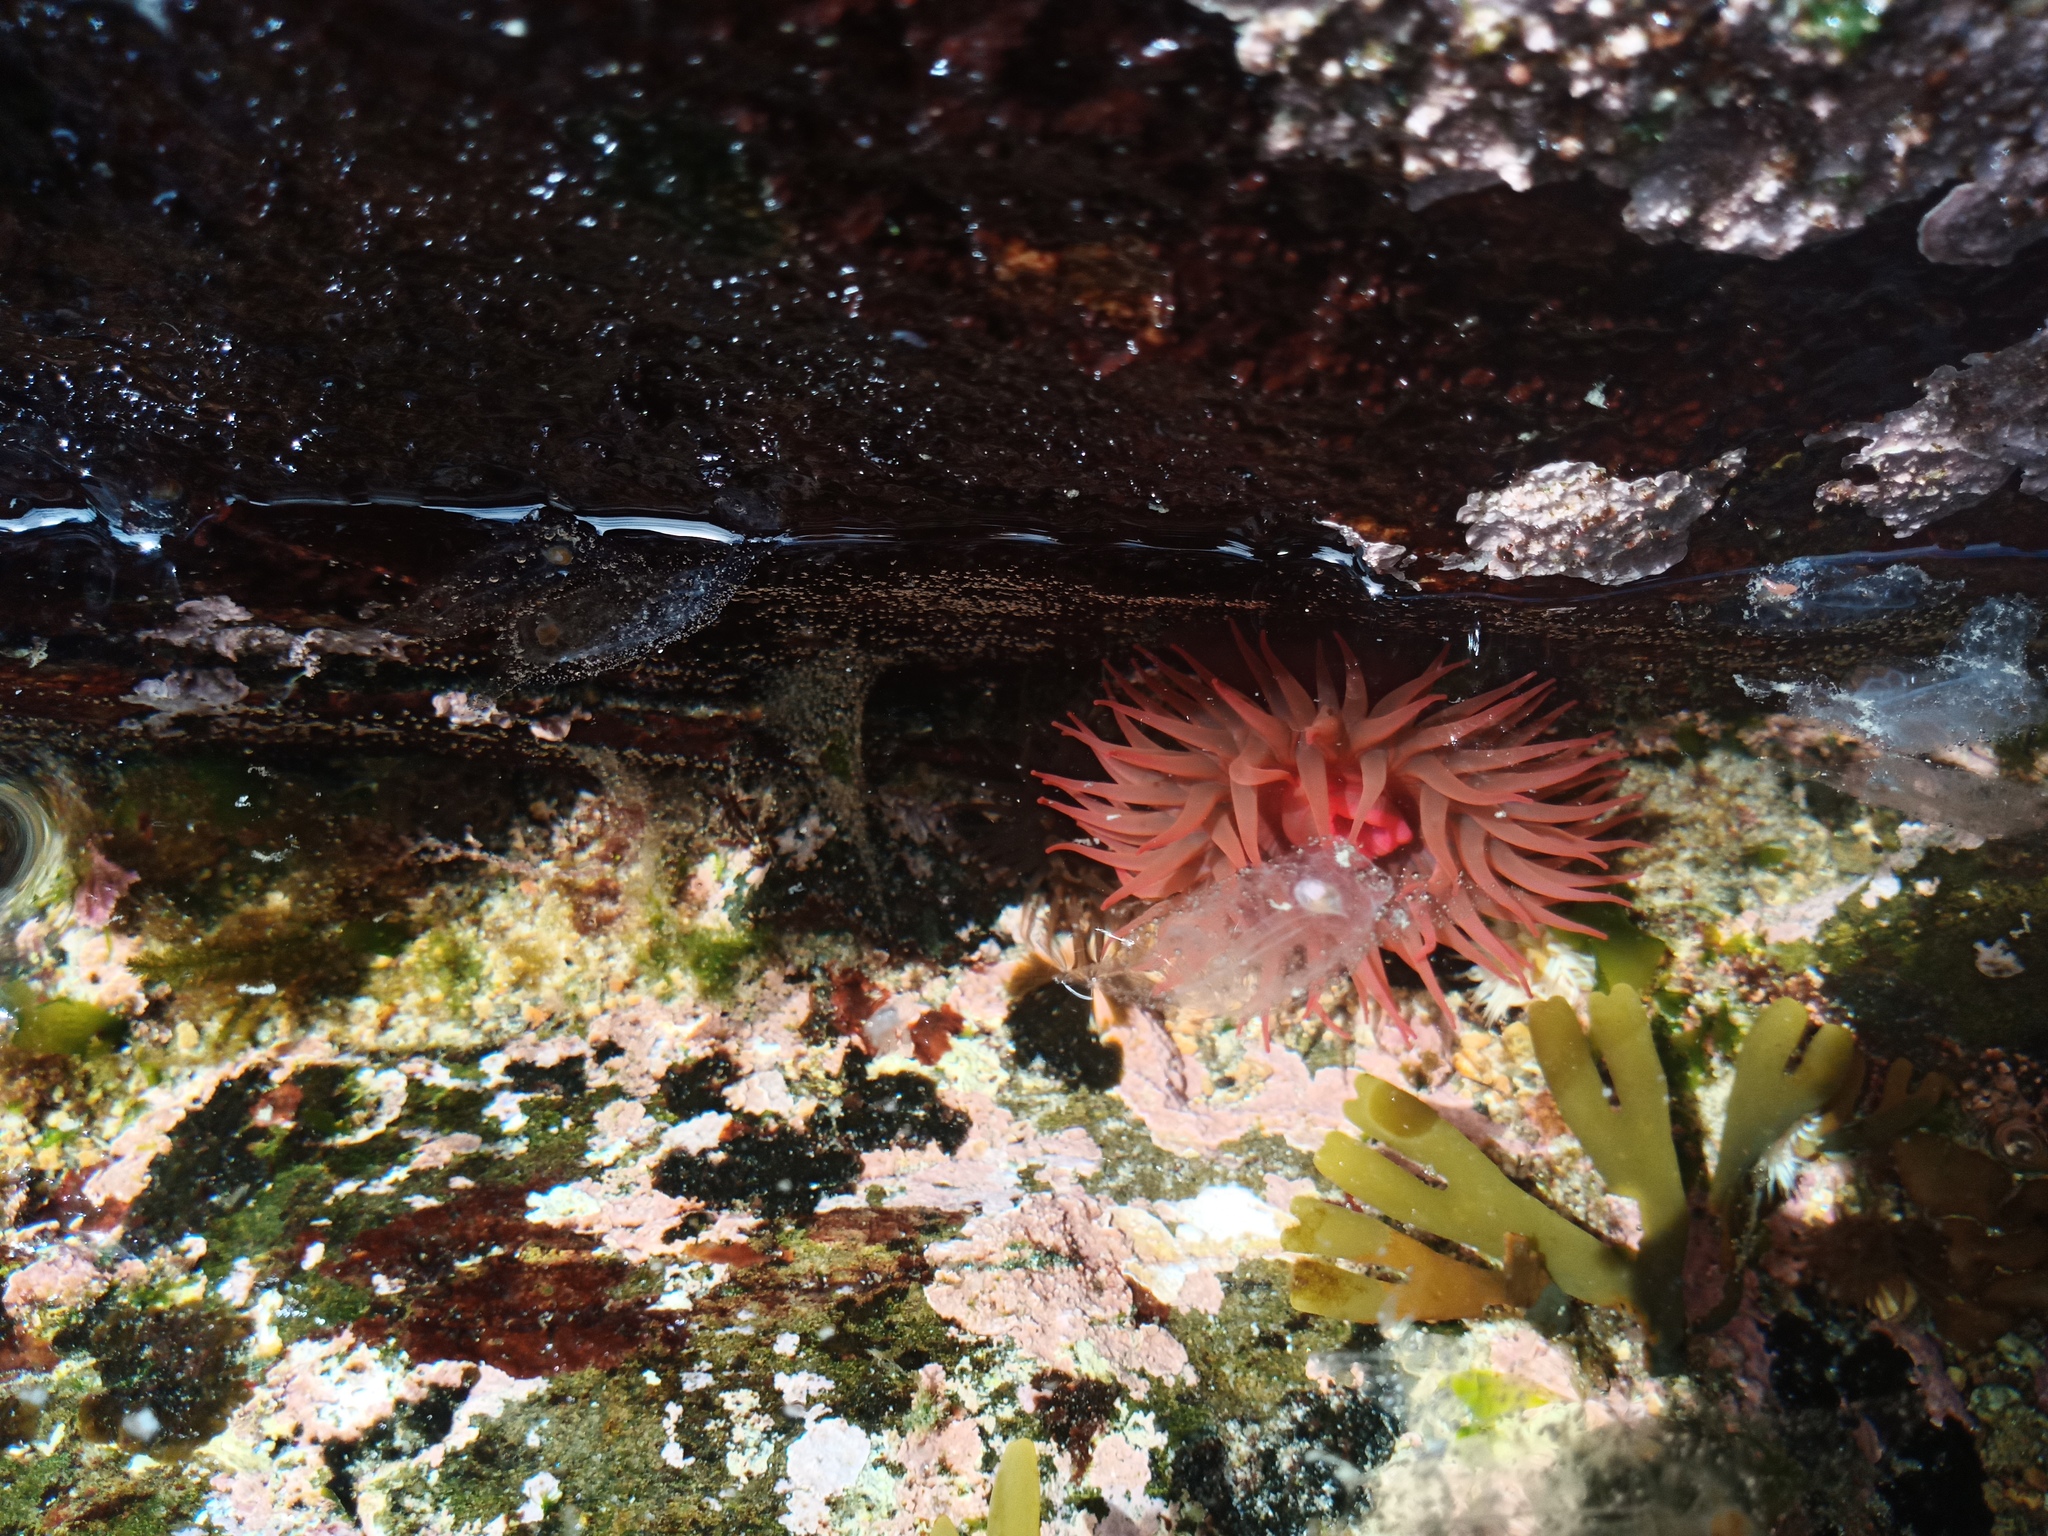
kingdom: Animalia
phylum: Cnidaria
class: Anthozoa
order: Actiniaria
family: Actiniidae
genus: Actinia
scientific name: Actinia tenebrosa
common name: Waratah anemone
